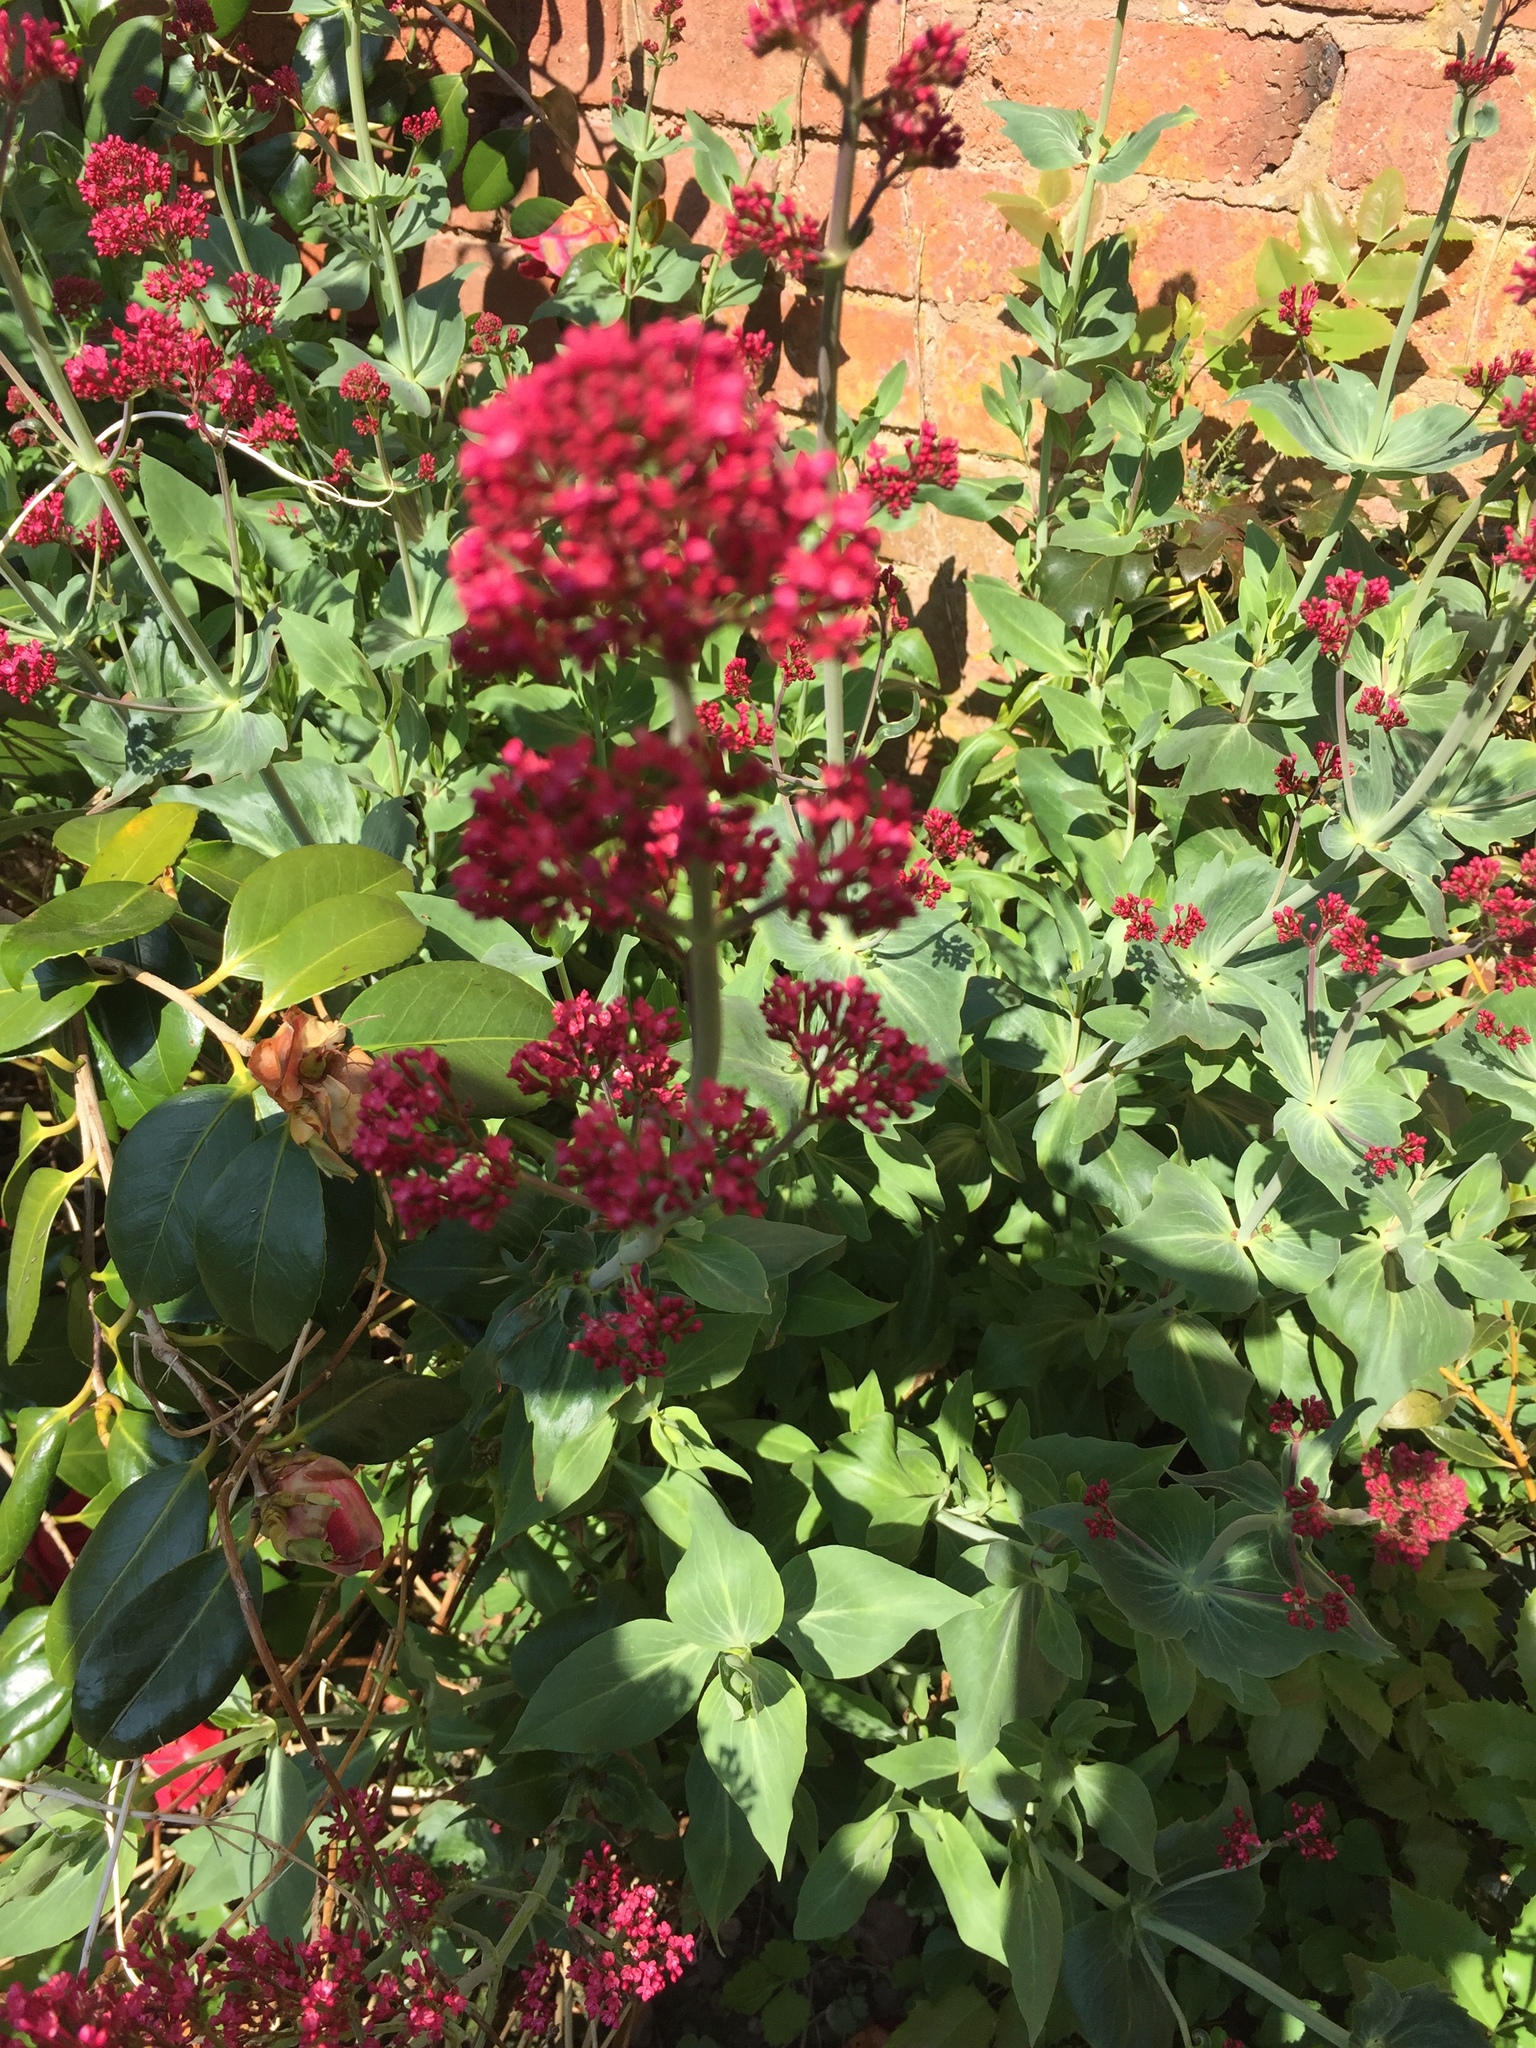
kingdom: Plantae
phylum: Tracheophyta
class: Magnoliopsida
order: Dipsacales
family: Caprifoliaceae
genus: Centranthus
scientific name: Centranthus ruber
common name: Red valerian
